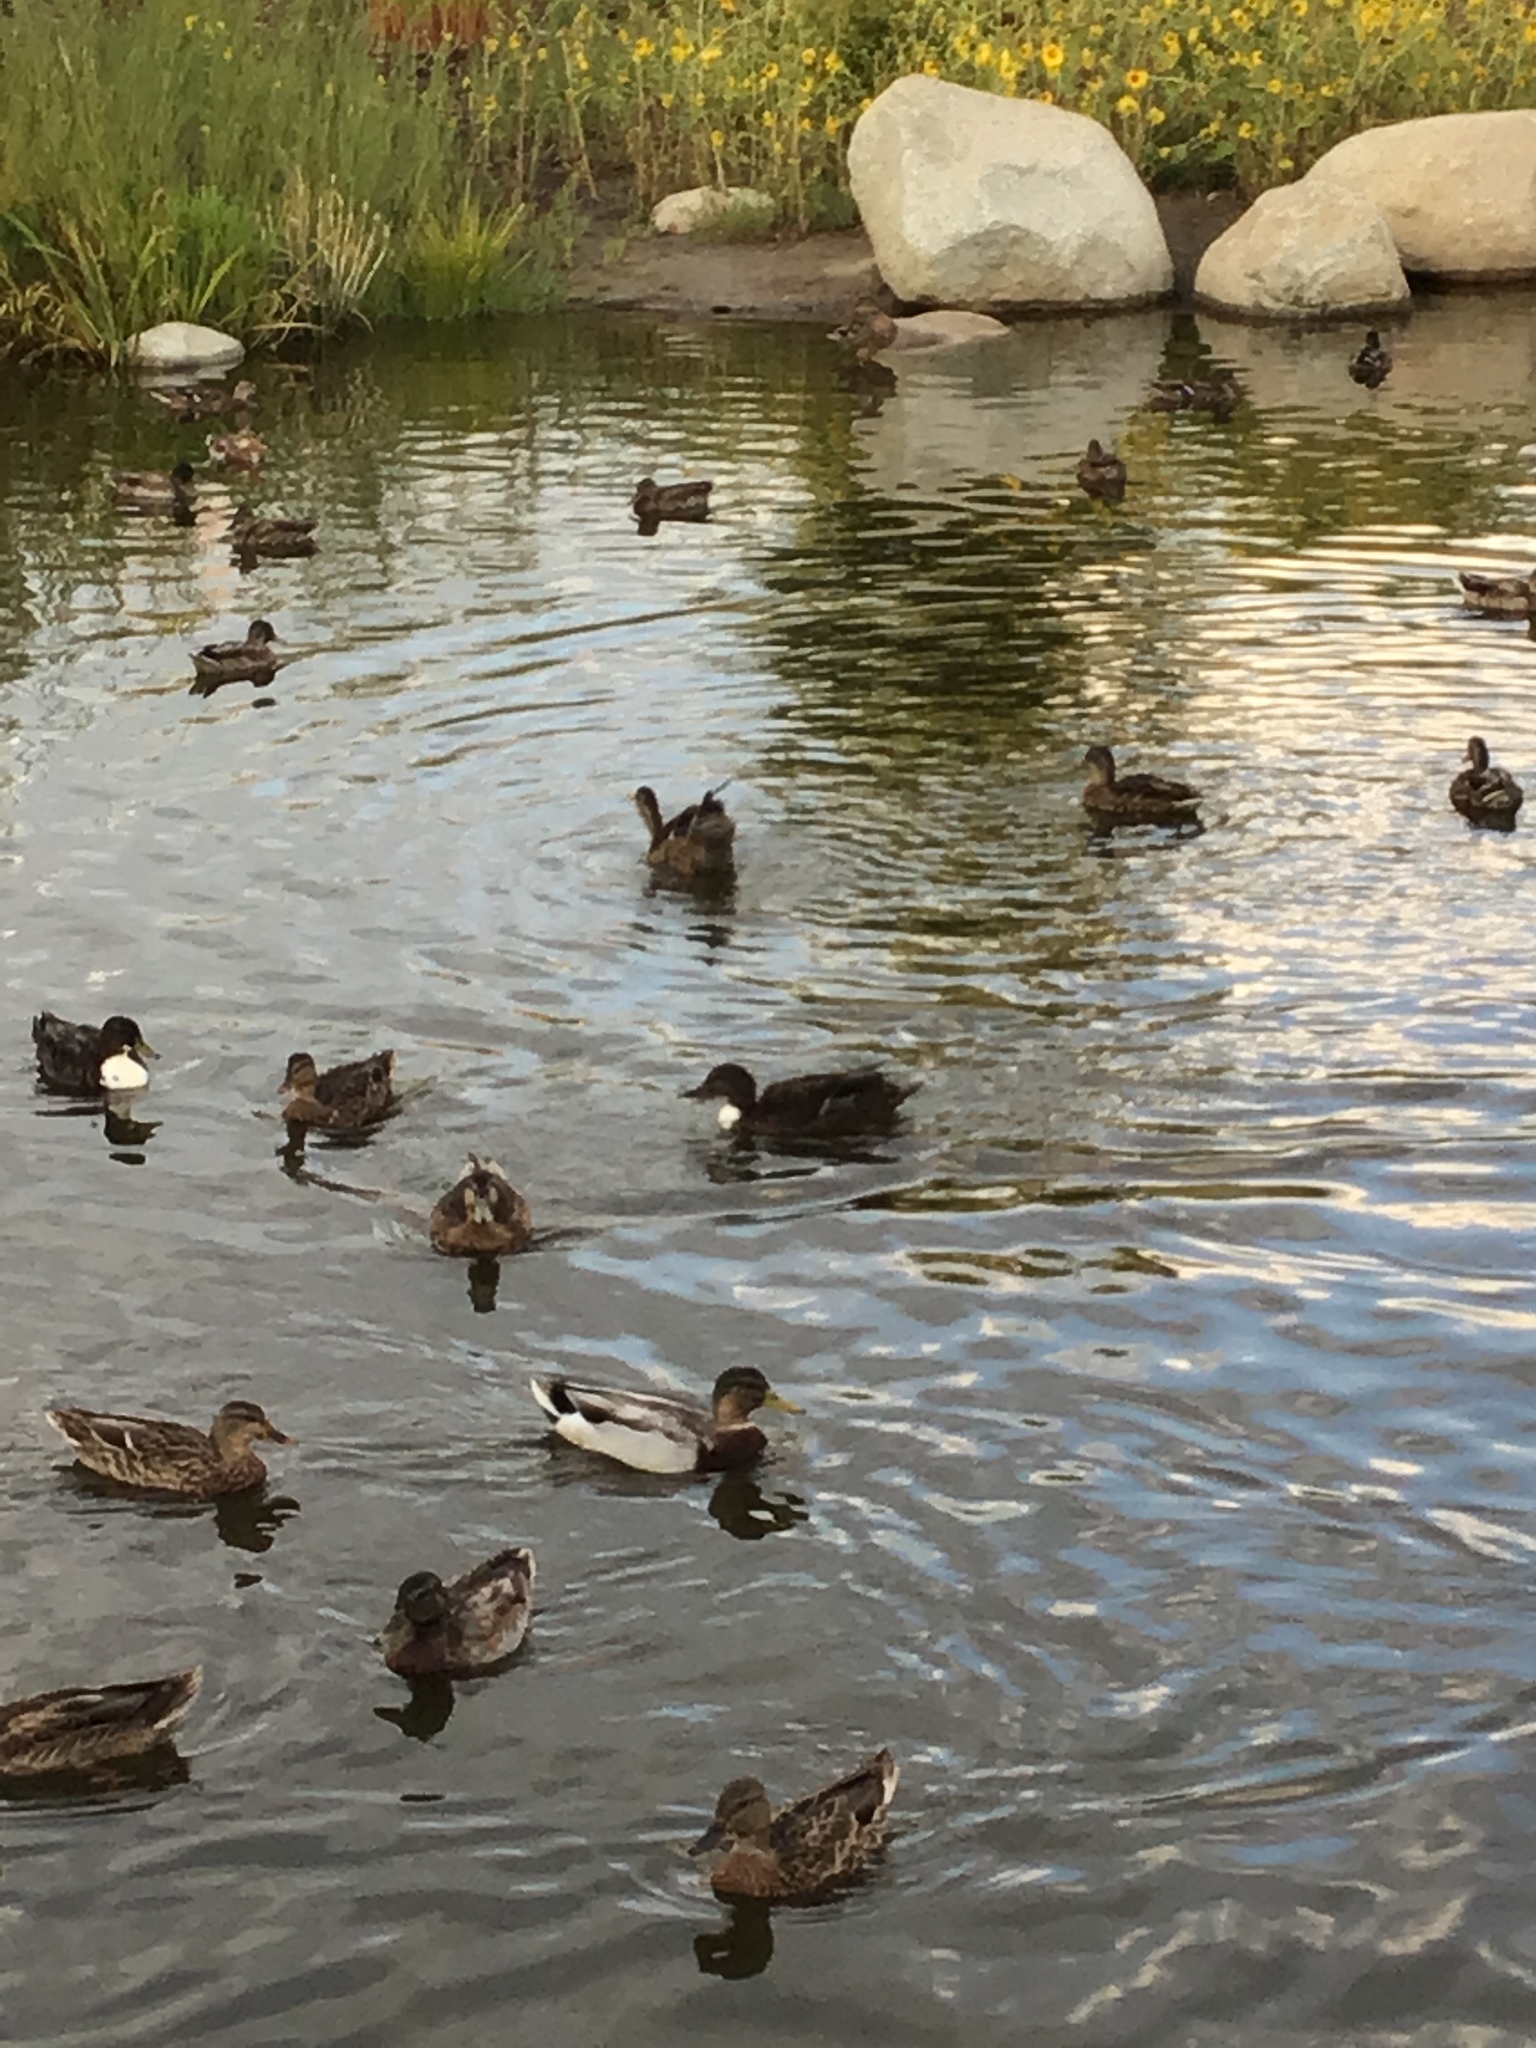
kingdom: Animalia
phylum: Chordata
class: Aves
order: Anseriformes
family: Anatidae
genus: Anas
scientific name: Anas platyrhynchos
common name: Mallard
